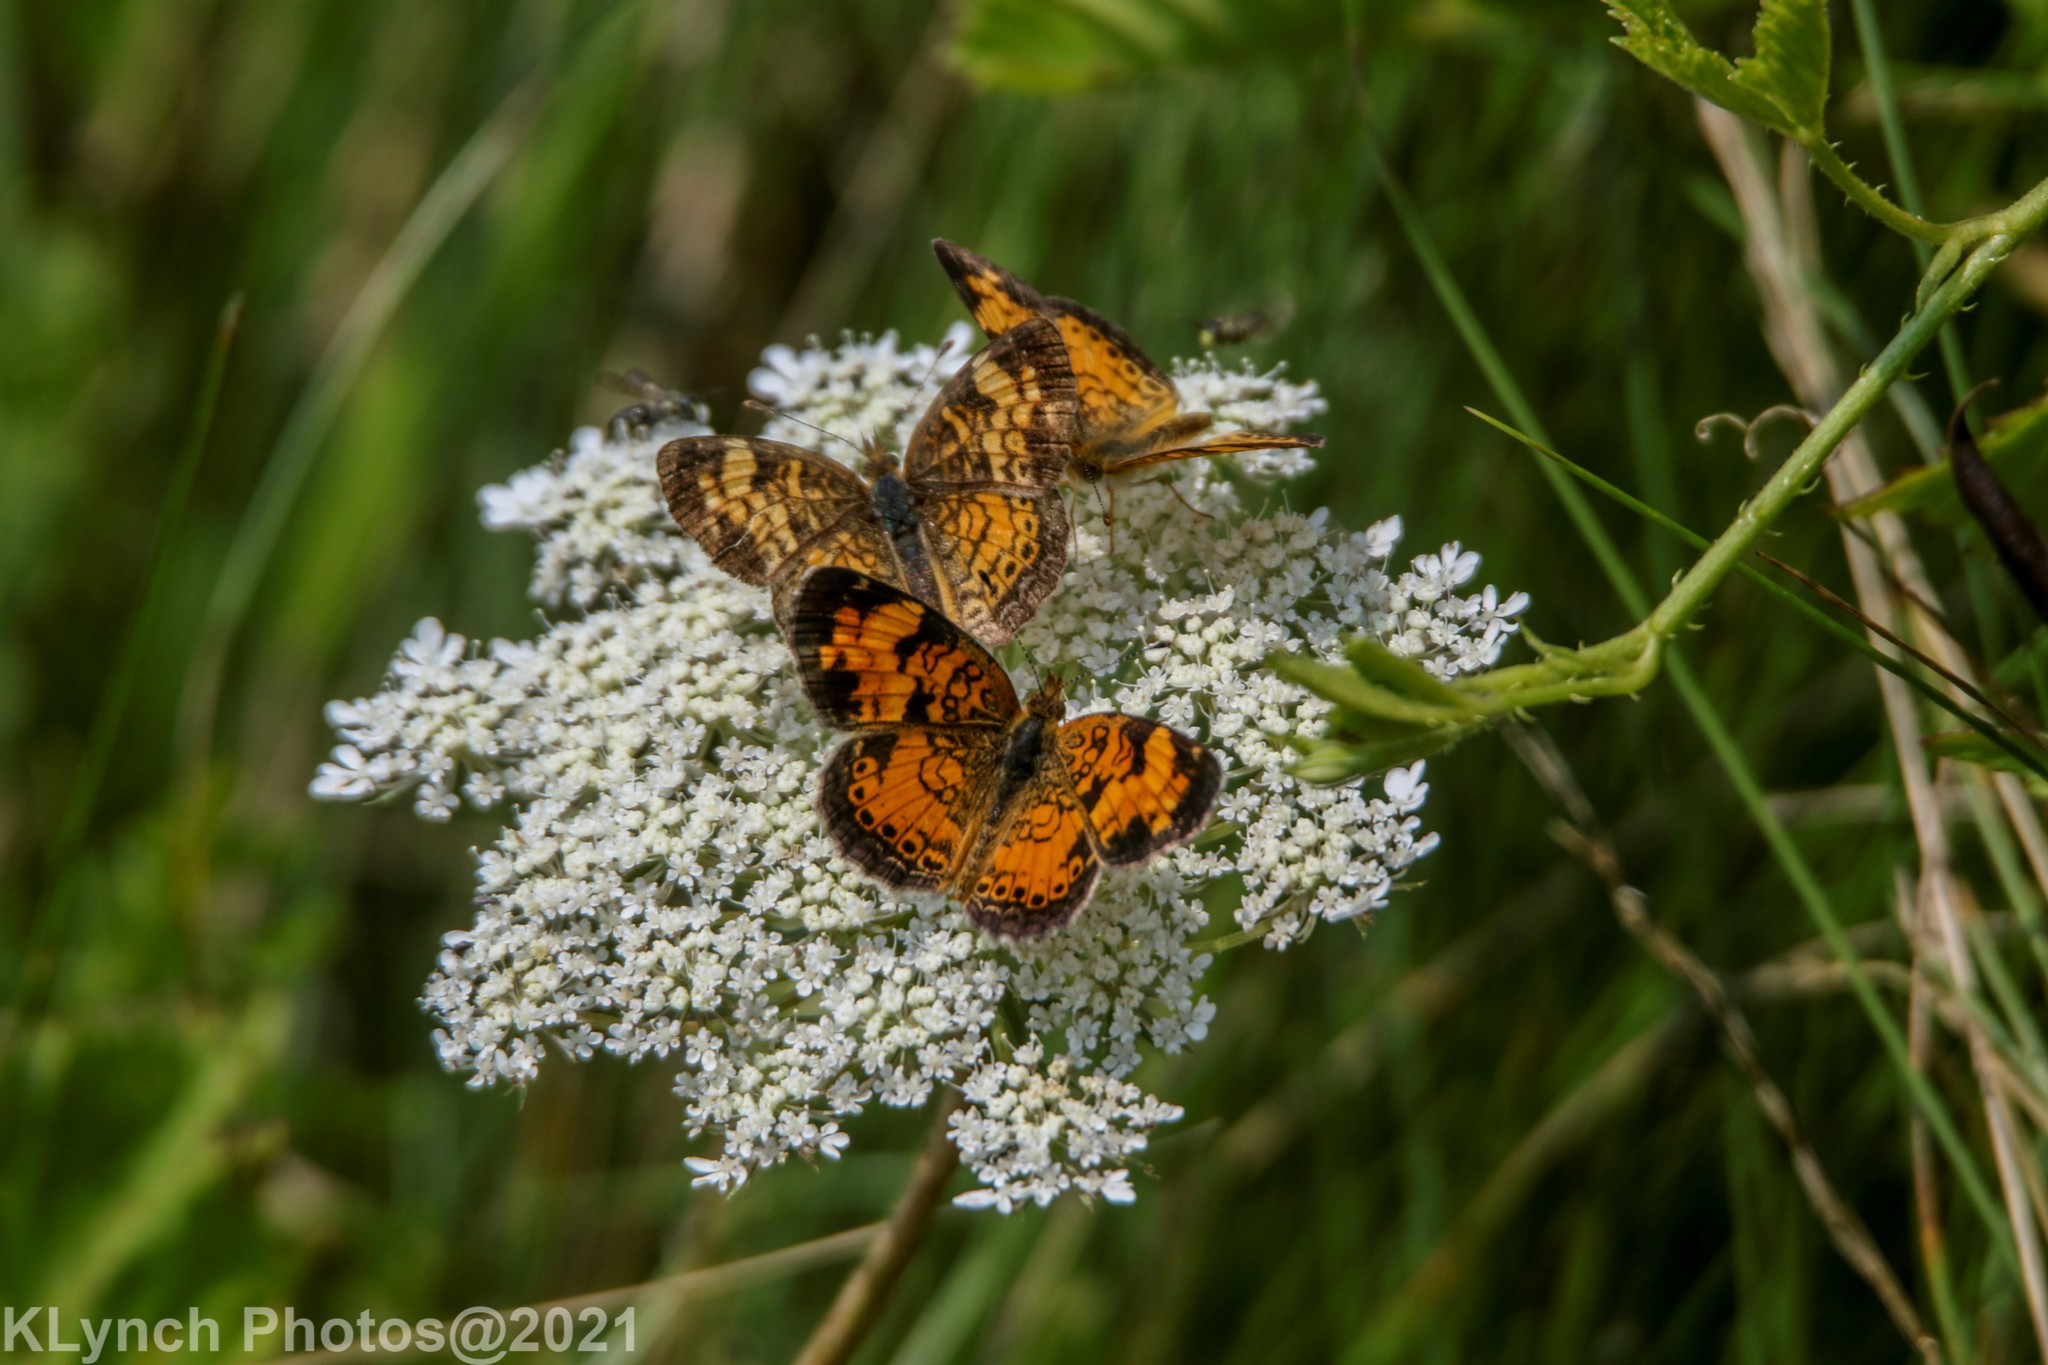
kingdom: Animalia
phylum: Arthropoda
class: Insecta
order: Lepidoptera
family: Nymphalidae
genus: Phyciodes
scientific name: Phyciodes tharos
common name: Pearl crescent
